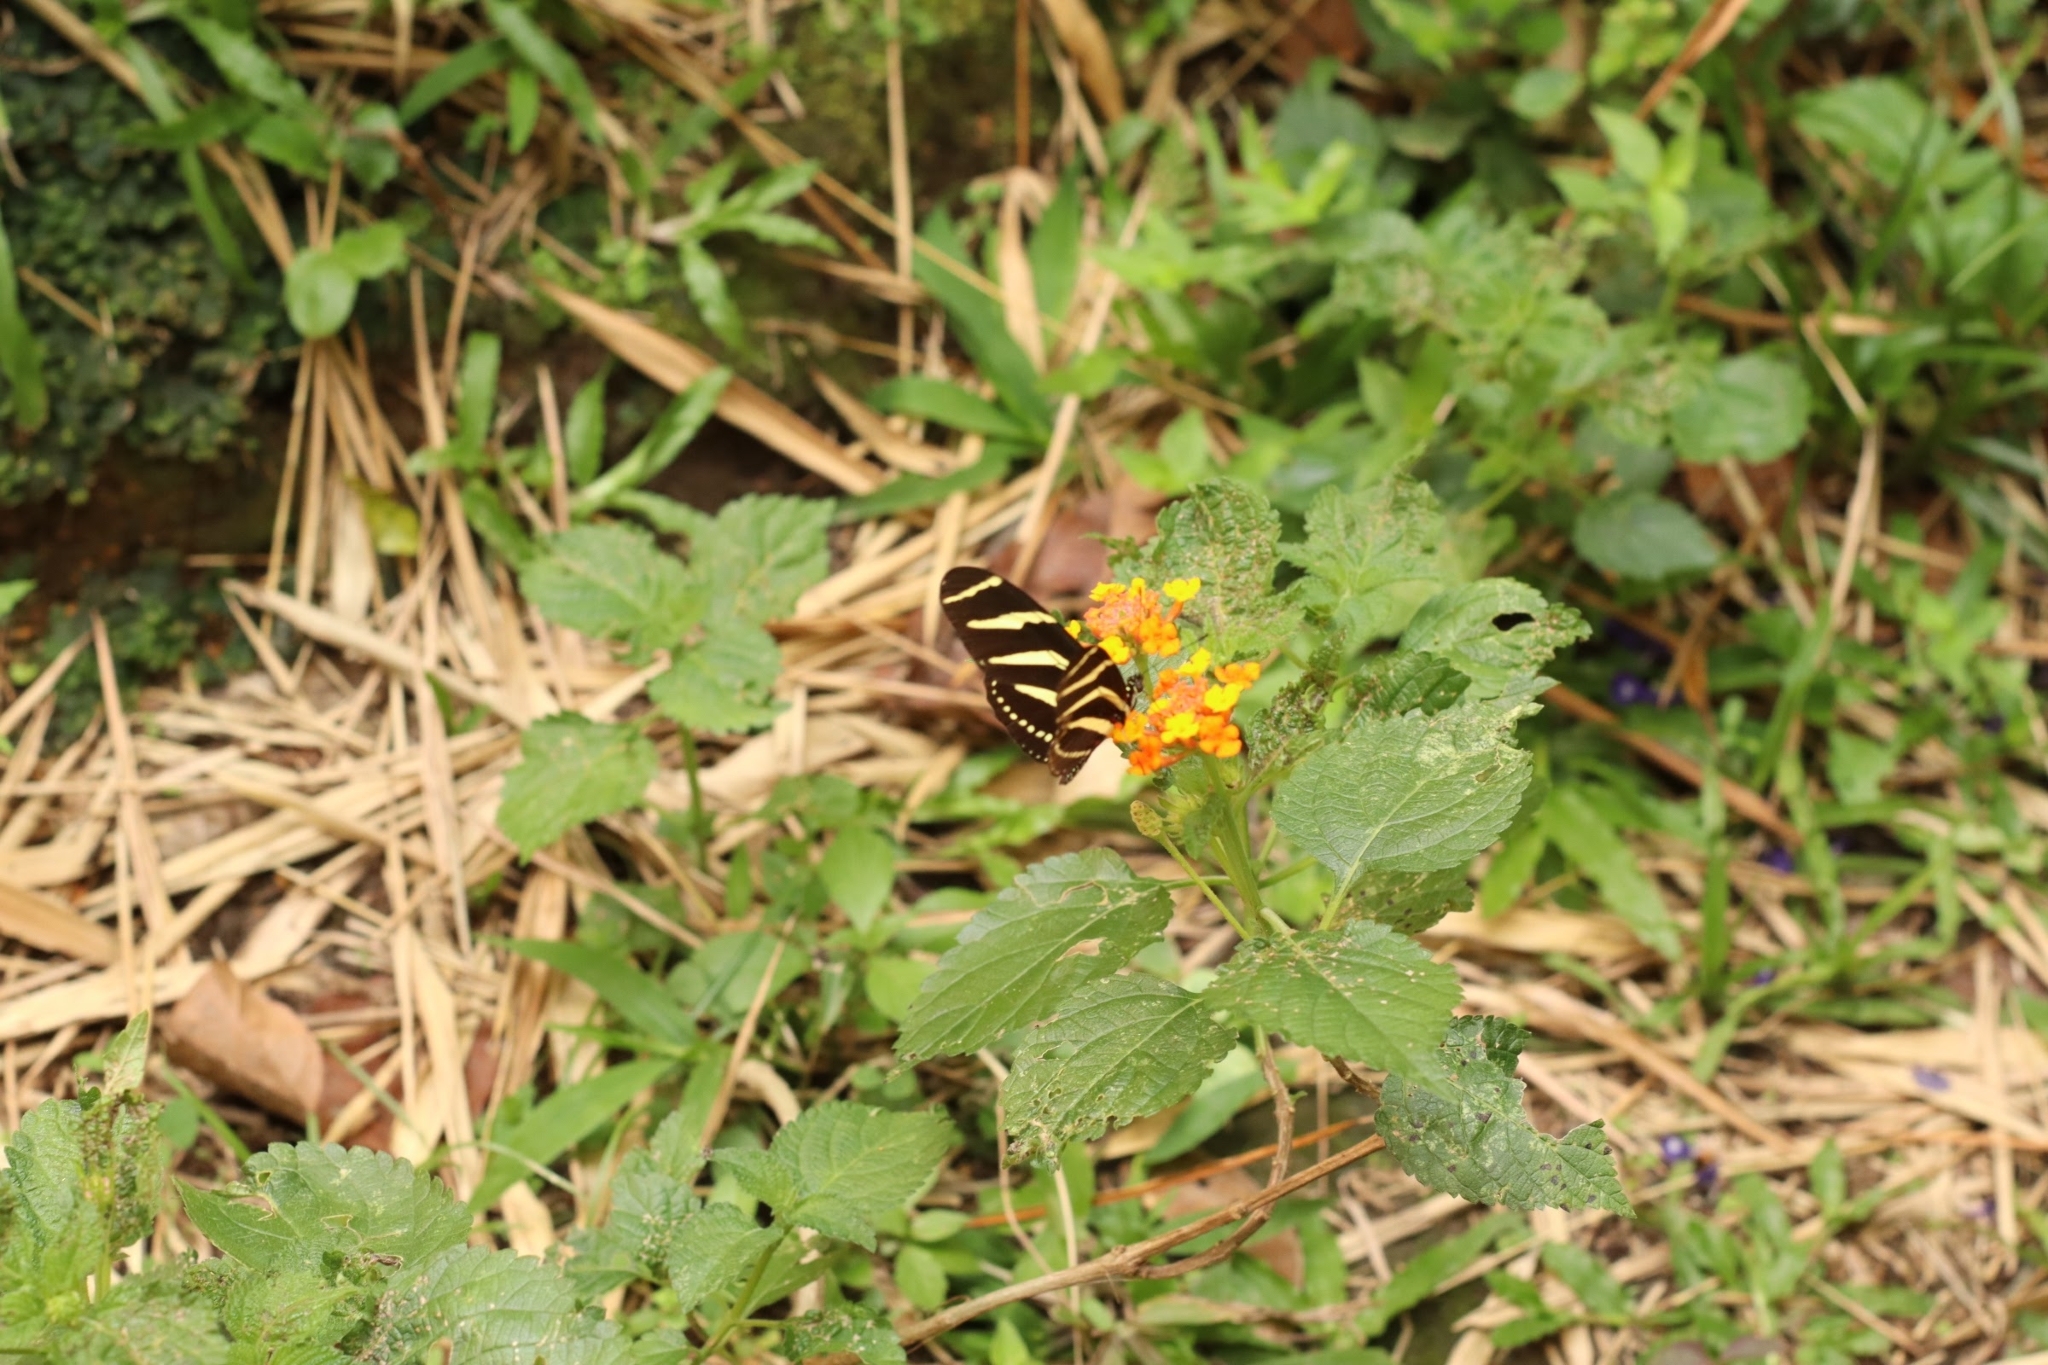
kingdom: Animalia
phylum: Arthropoda
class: Insecta
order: Lepidoptera
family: Nymphalidae
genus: Heliconius
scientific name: Heliconius charithonia
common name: Zebra long wing
